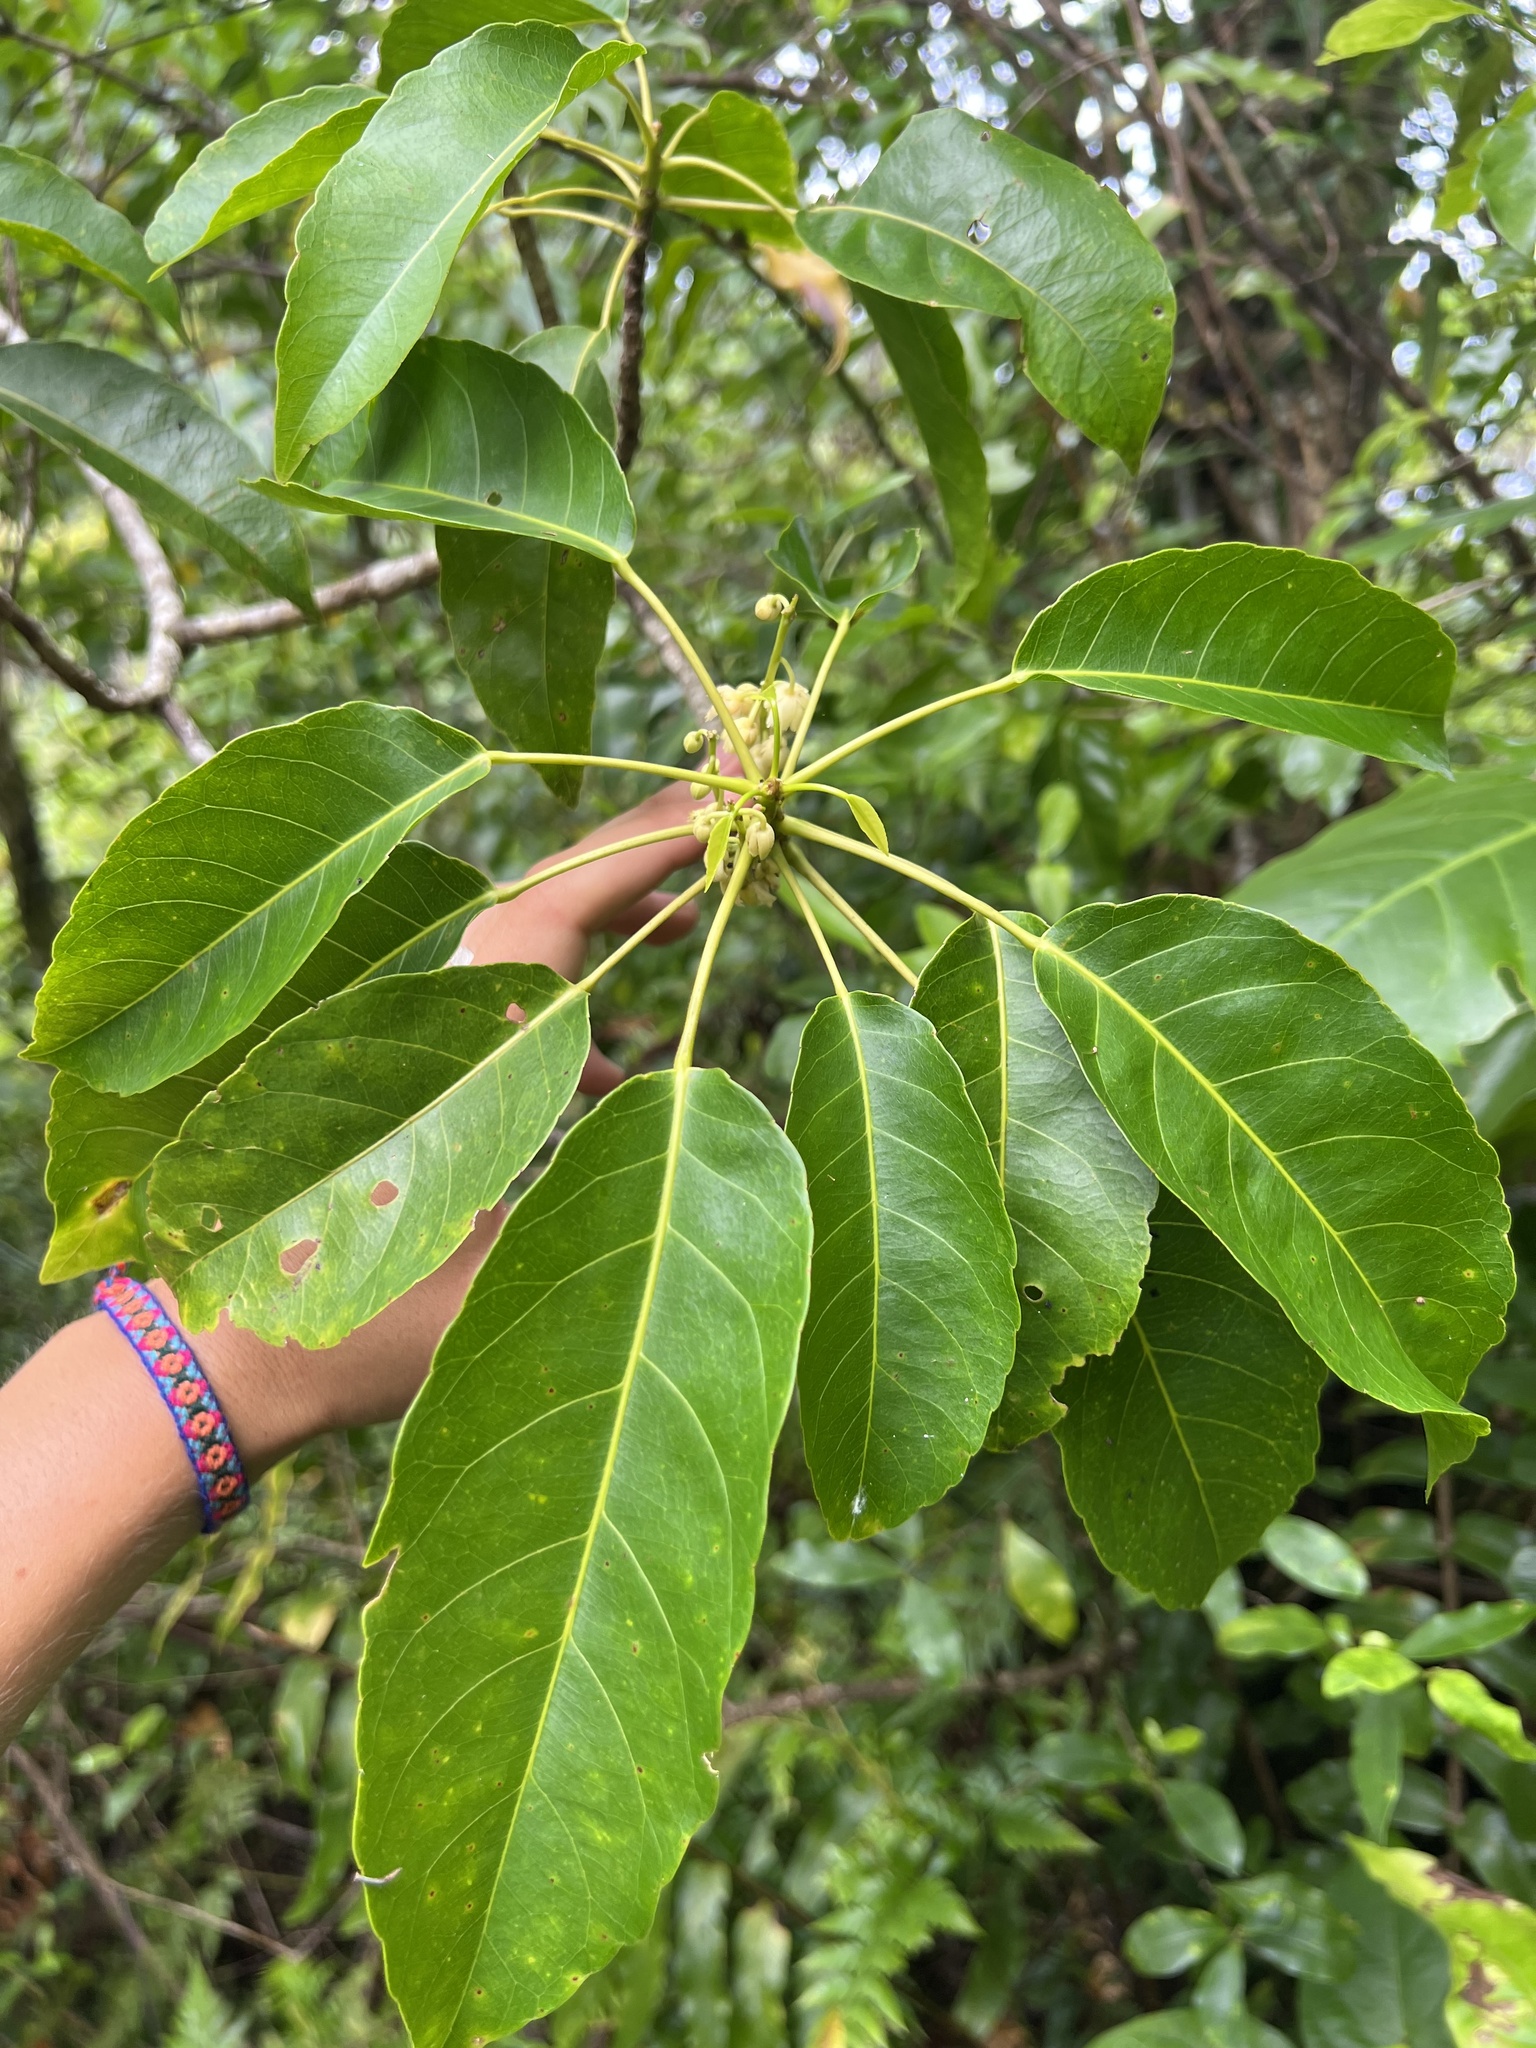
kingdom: Plantae
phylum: Tracheophyta
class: Magnoliopsida
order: Oxalidales
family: Elaeocarpaceae
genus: Elaeocarpus
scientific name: Elaeocarpus floridanus
